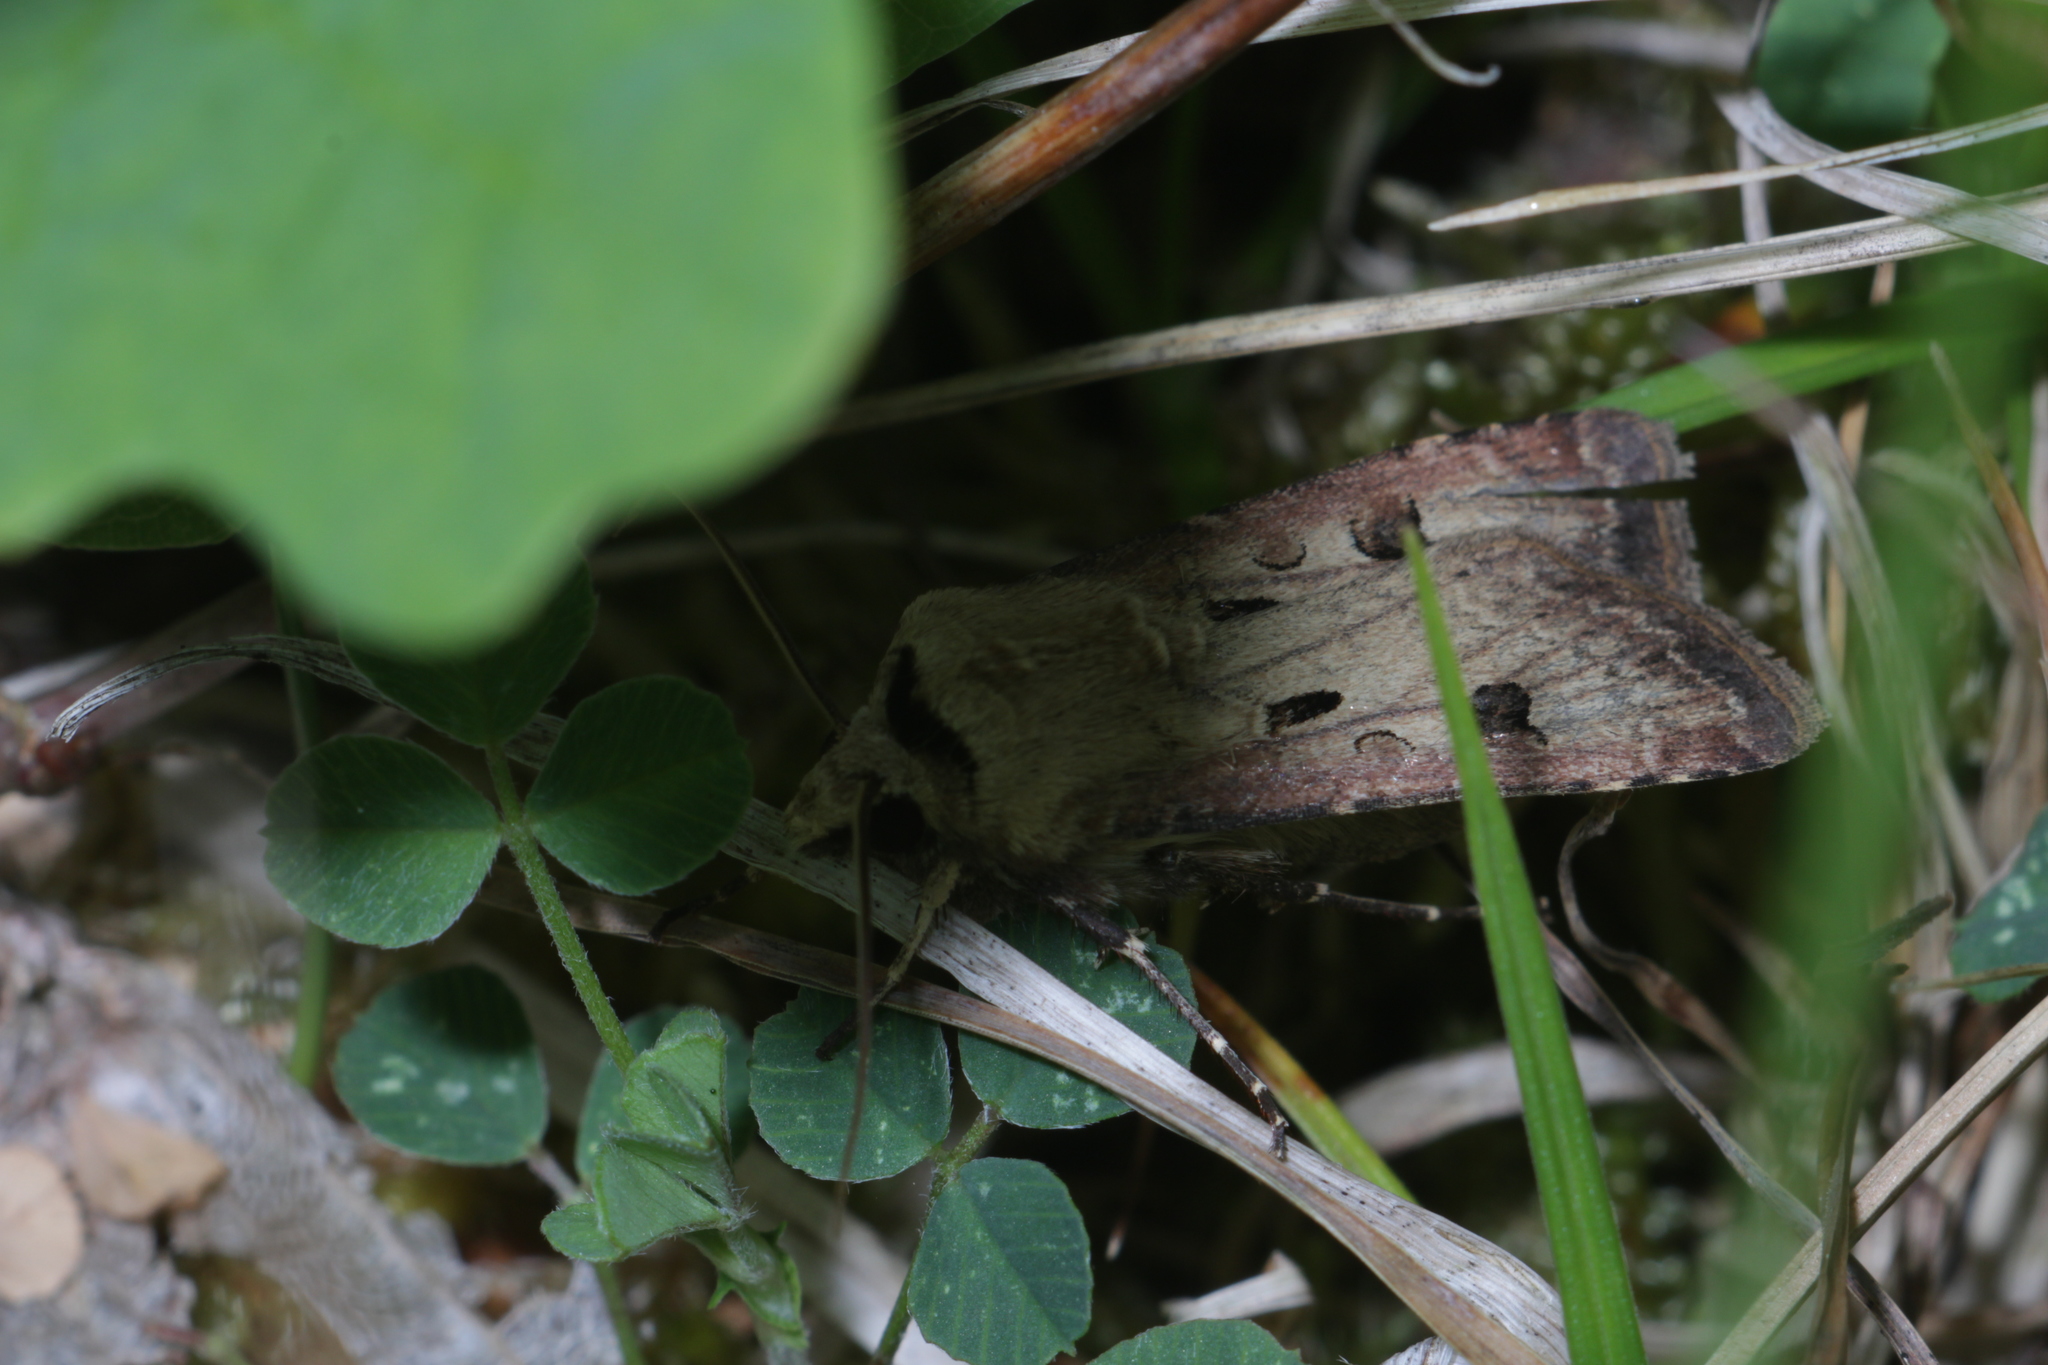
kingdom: Animalia
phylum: Arthropoda
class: Insecta
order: Lepidoptera
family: Noctuidae
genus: Agrotis
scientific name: Agrotis exclamationis
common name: Heart and dart
